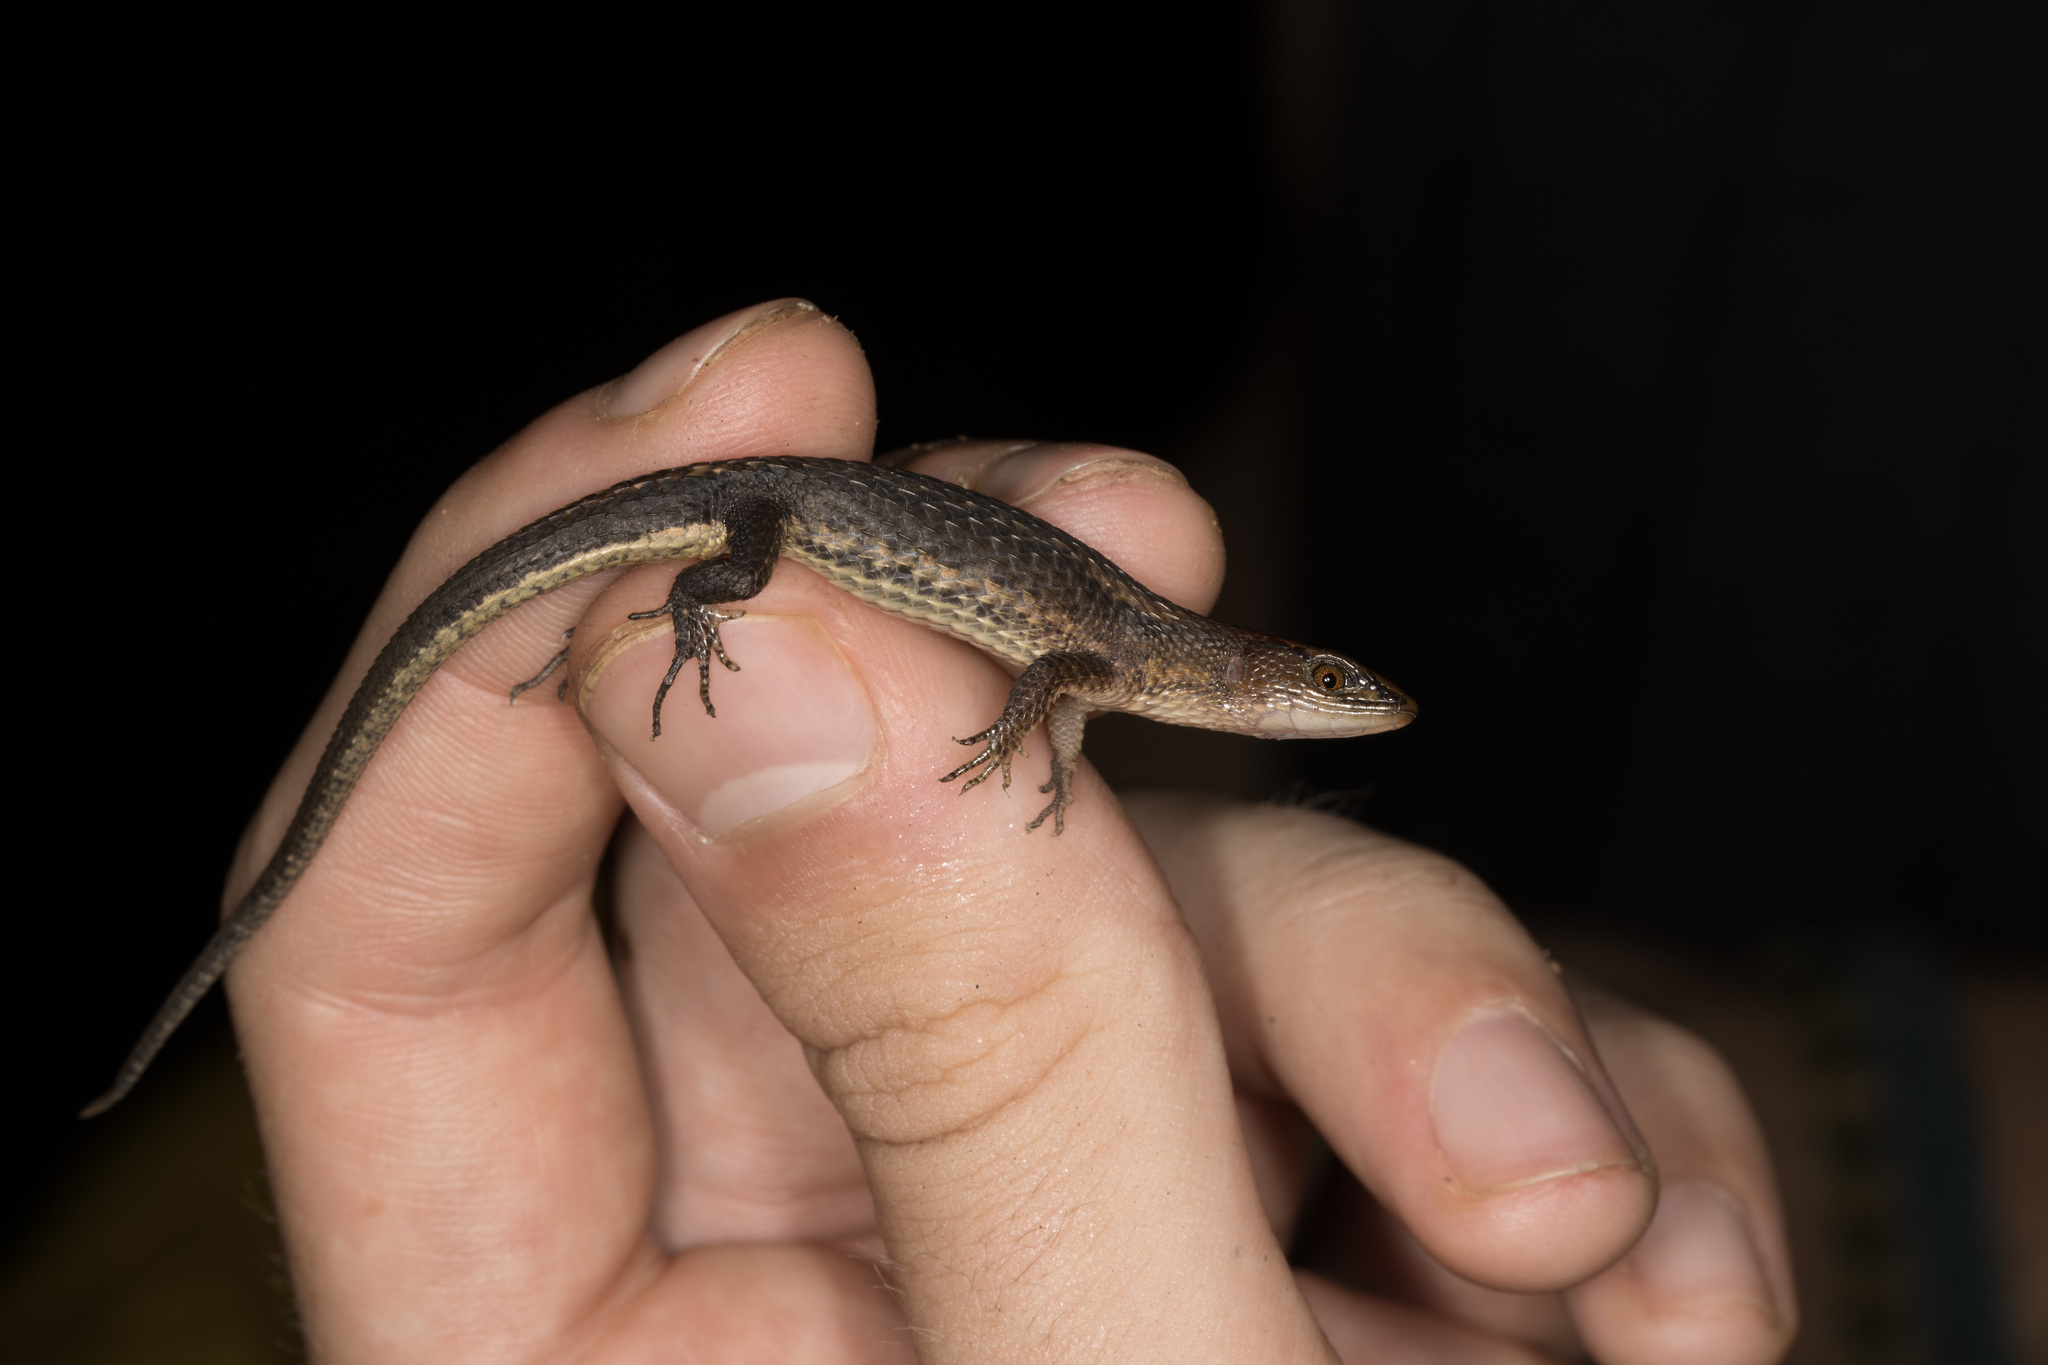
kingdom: Animalia
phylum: Chordata
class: Squamata
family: Alopoglossidae
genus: Alopoglossus
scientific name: Alopoglossus angulatus
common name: Northern teiid
